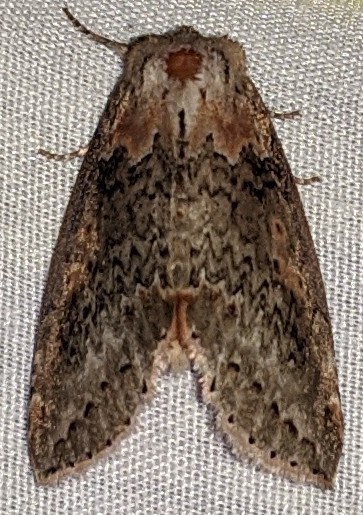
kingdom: Animalia
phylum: Arthropoda
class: Insecta
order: Lepidoptera
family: Drepanidae
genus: Pseudothyatira
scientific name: Pseudothyatira cymatophoroides
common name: Tufted thyatirid moth
